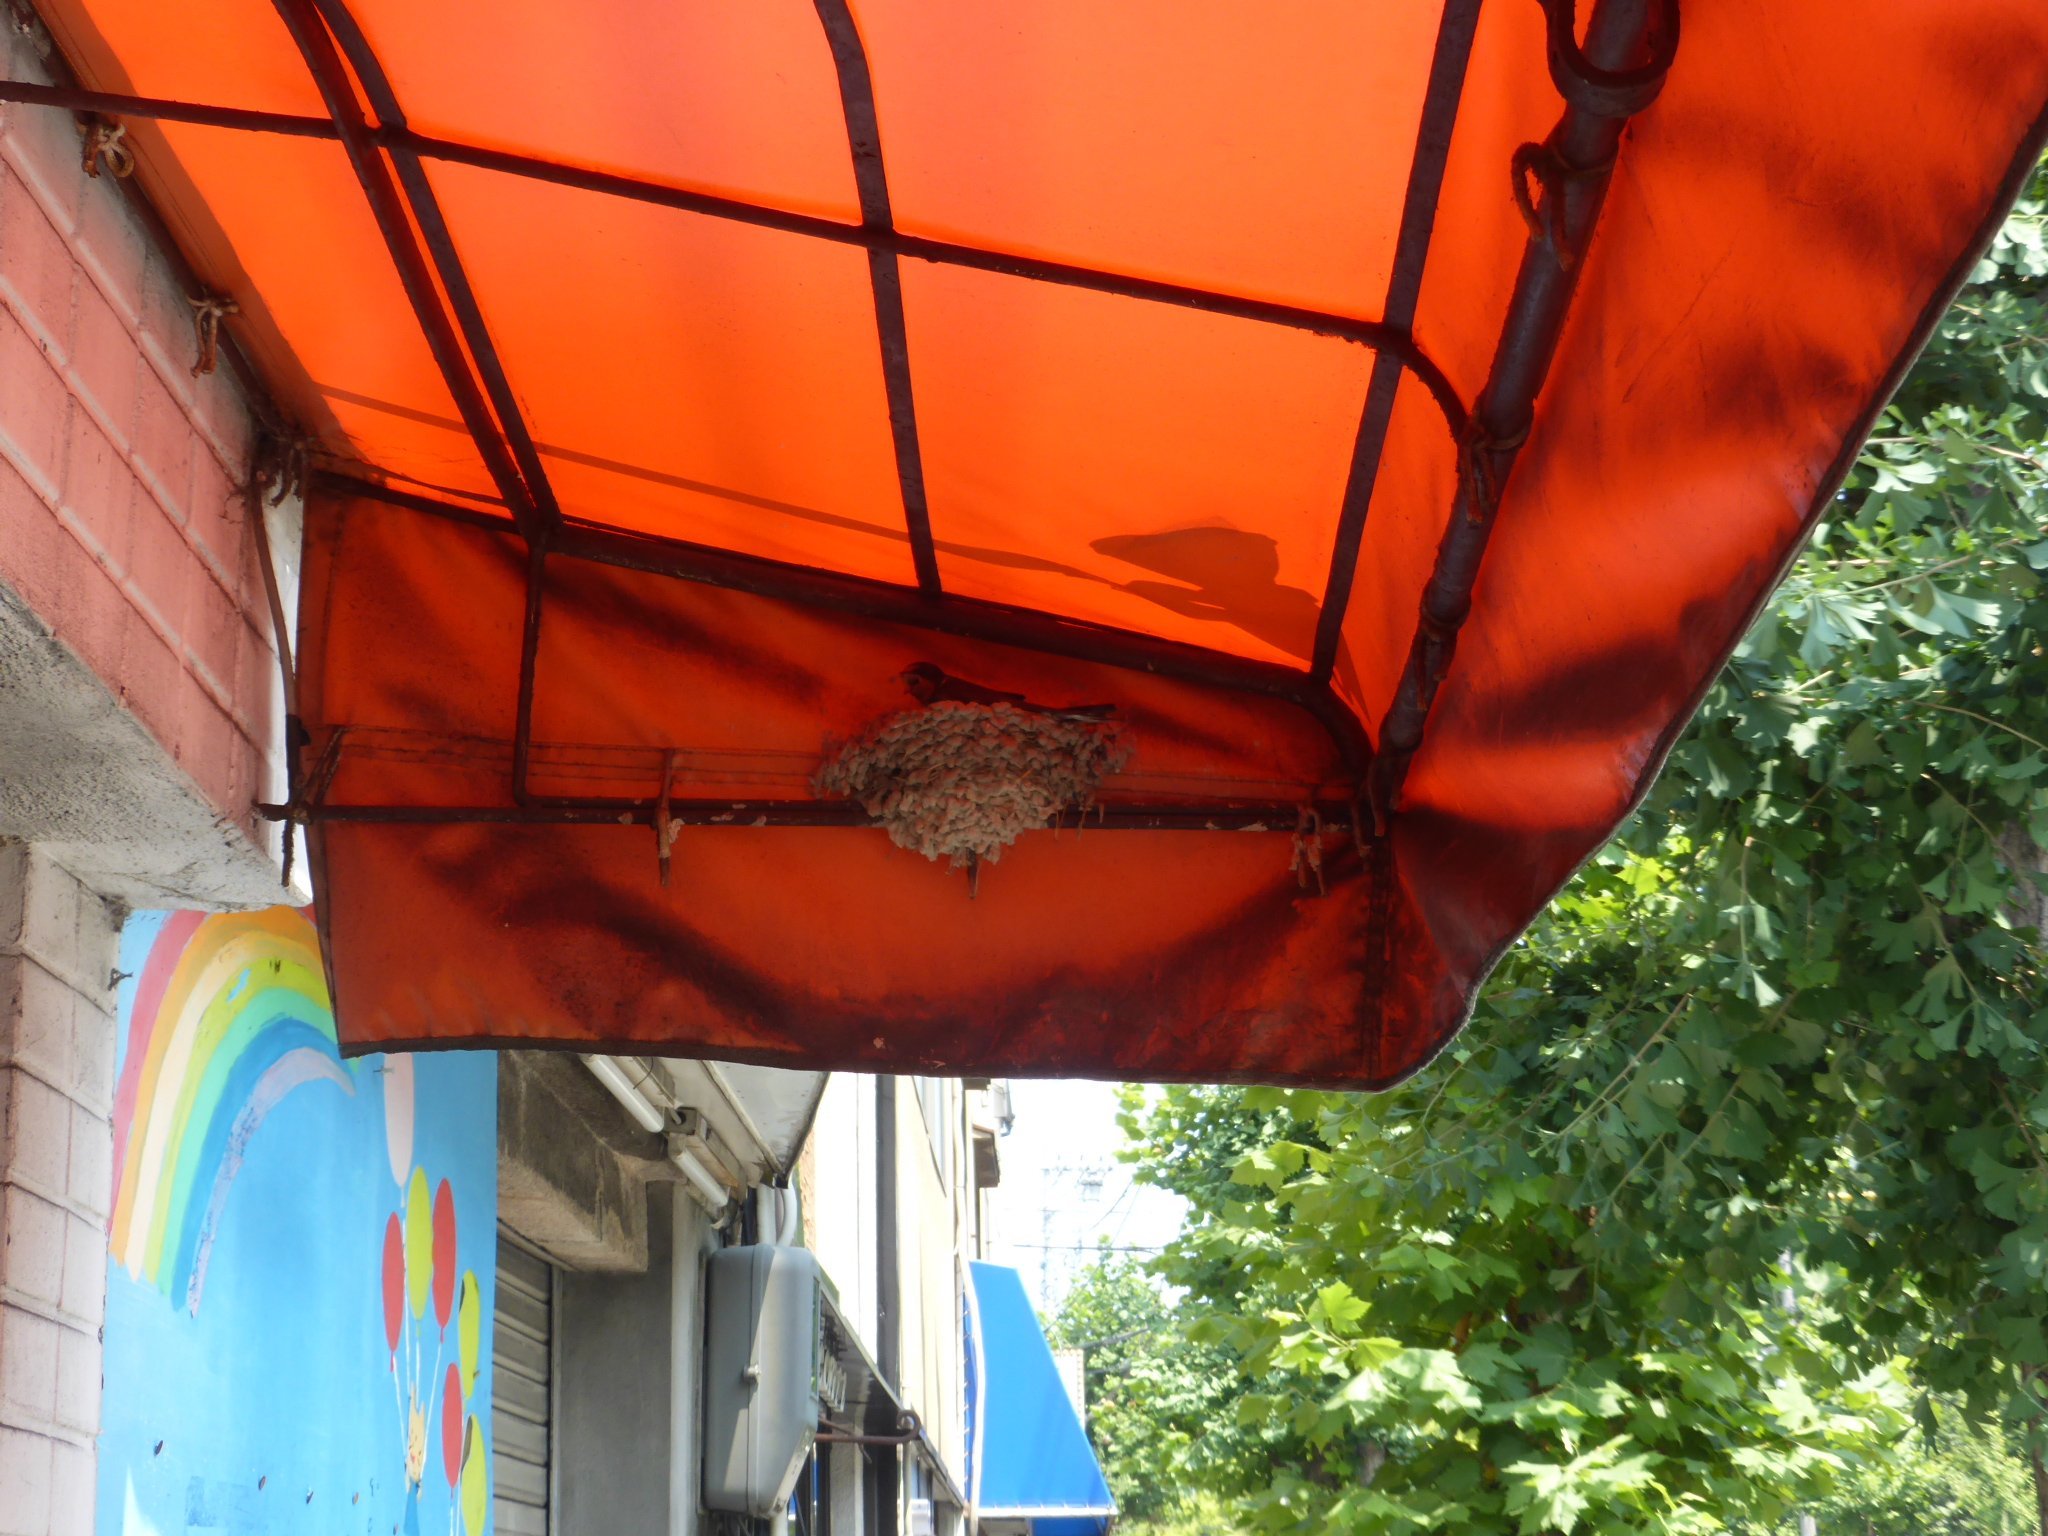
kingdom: Animalia
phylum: Chordata
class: Aves
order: Passeriformes
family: Hirundinidae
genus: Hirundo
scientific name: Hirundo rustica
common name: Barn swallow
